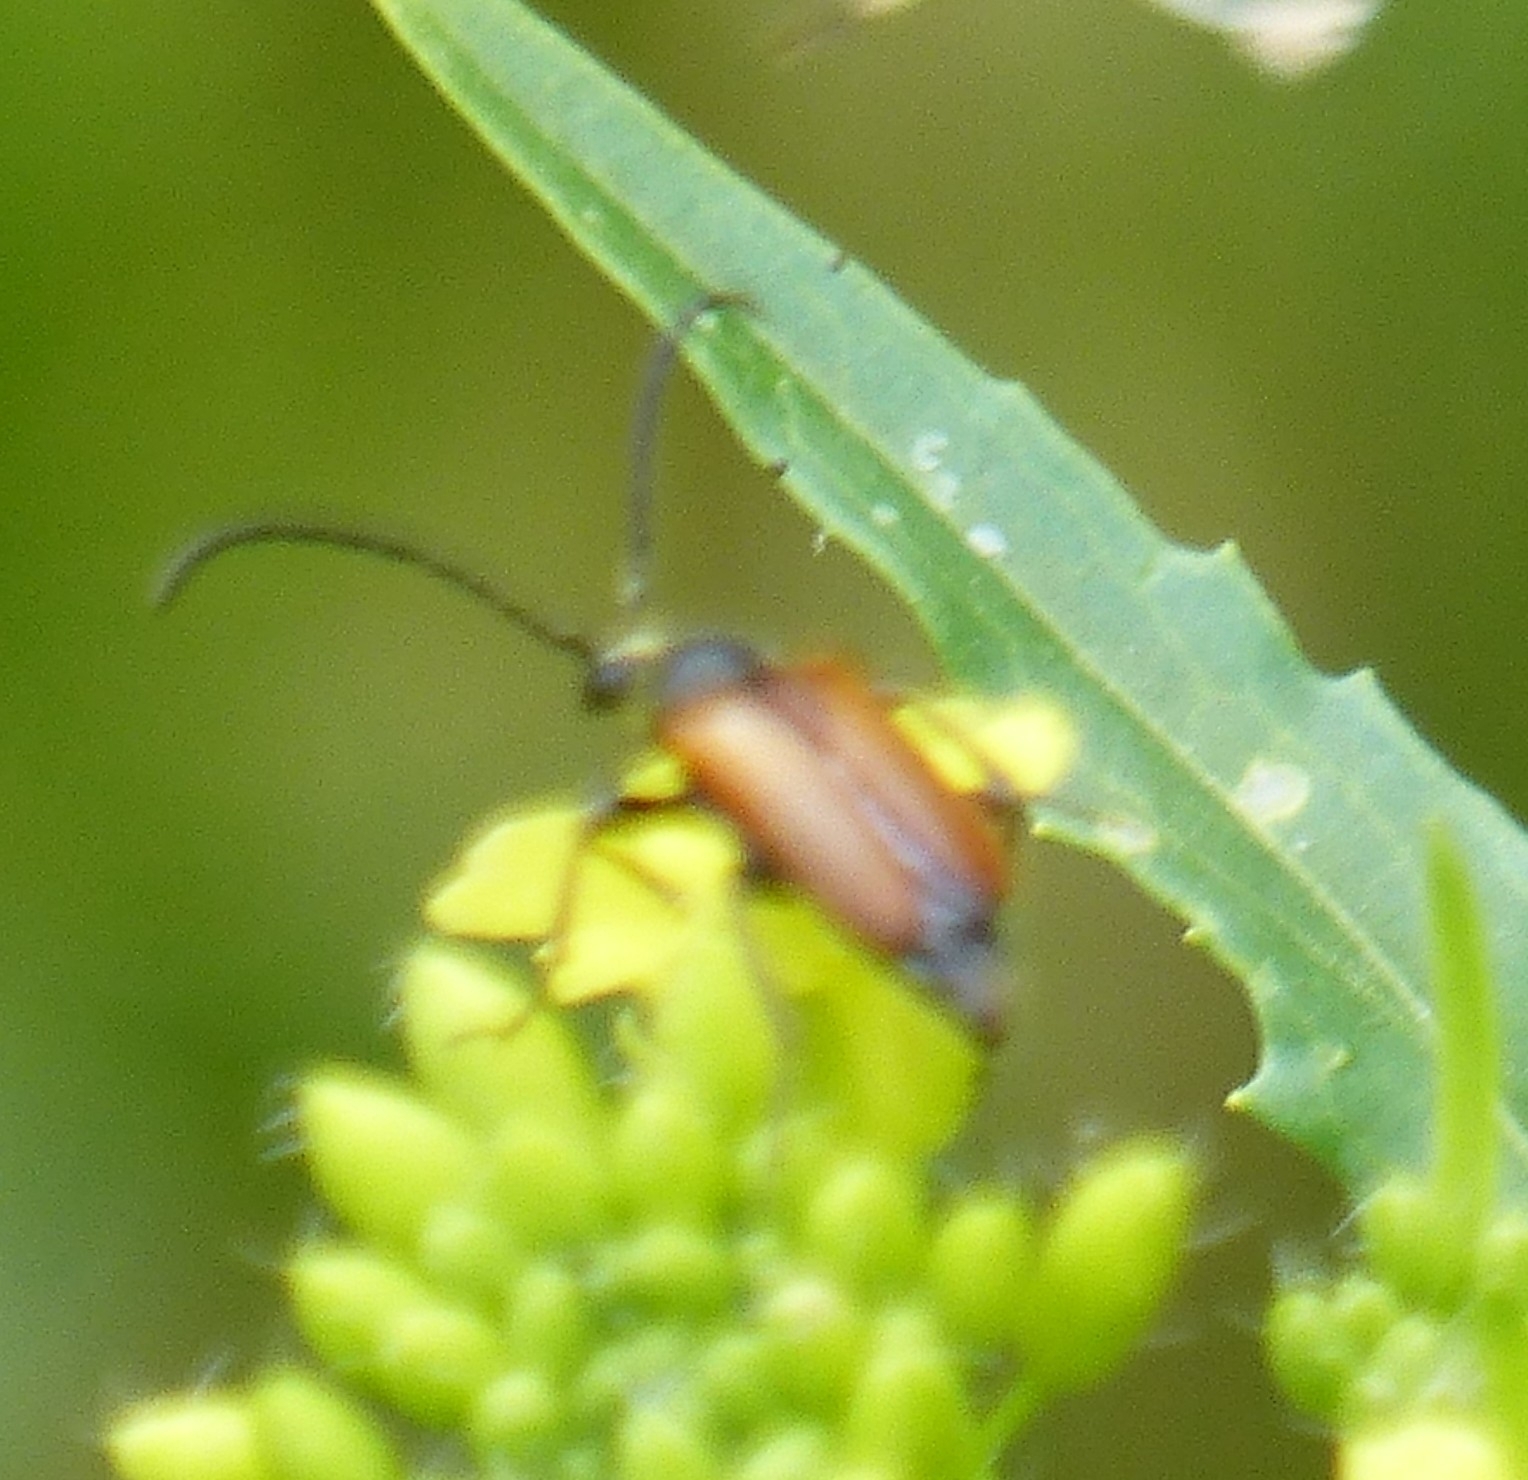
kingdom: Animalia
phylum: Arthropoda
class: Insecta
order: Coleoptera
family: Cerambycidae
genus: Pseudovadonia
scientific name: Pseudovadonia livida
